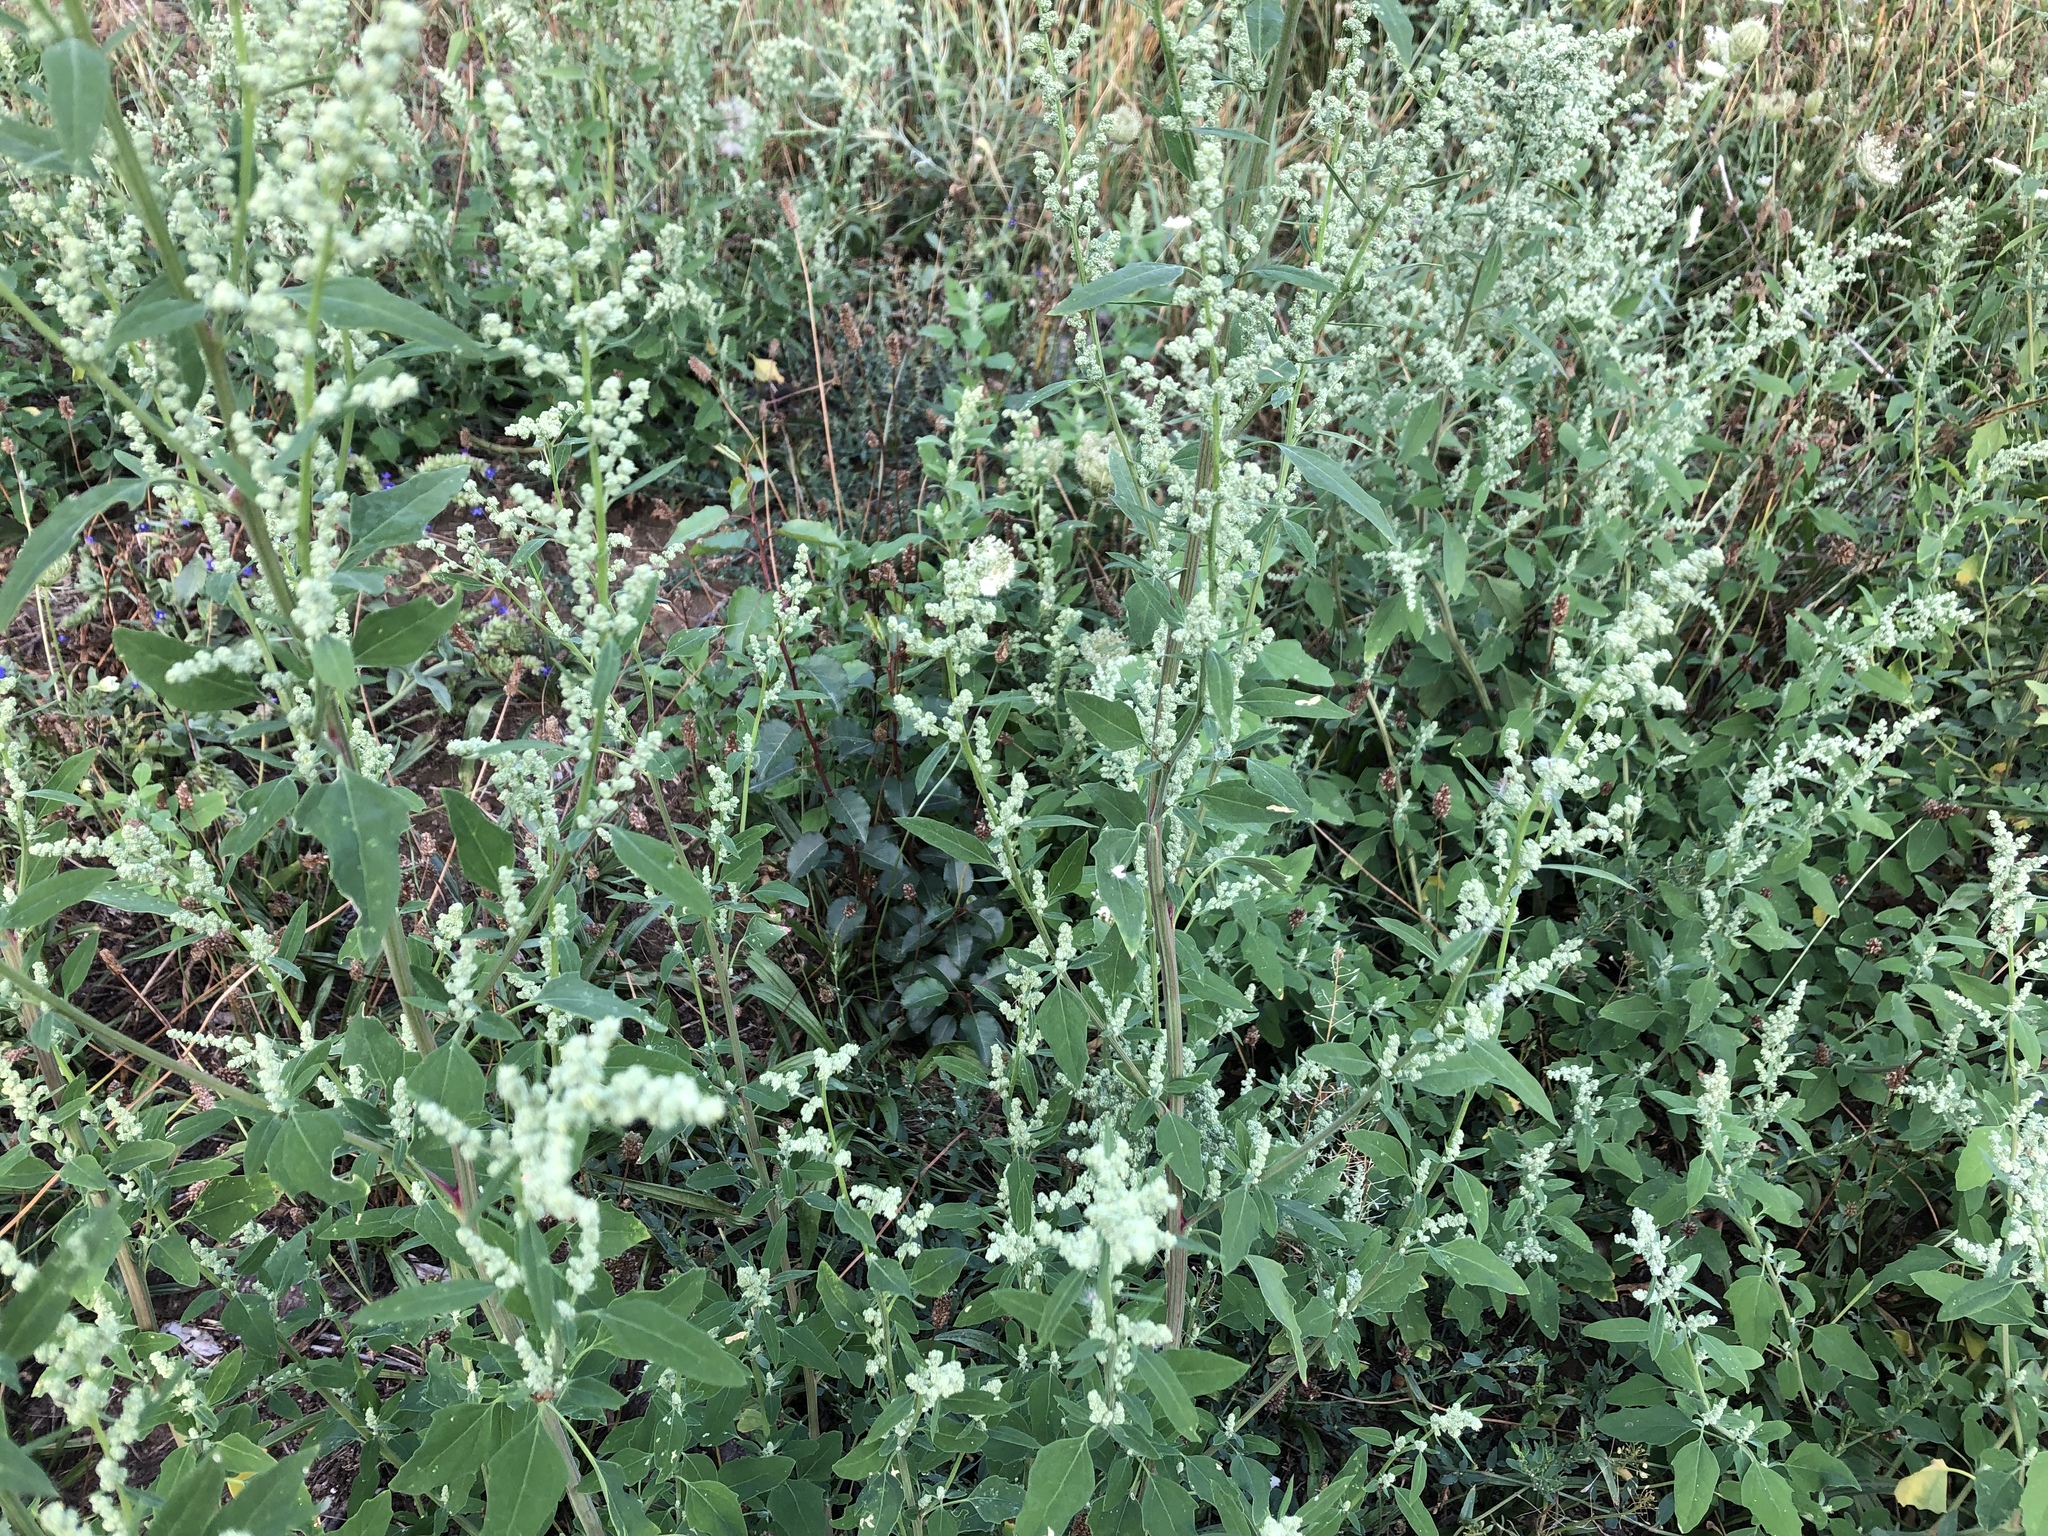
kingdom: Plantae
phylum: Tracheophyta
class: Magnoliopsida
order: Caryophyllales
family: Amaranthaceae
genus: Chenopodium
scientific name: Chenopodium album
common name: Fat-hen
